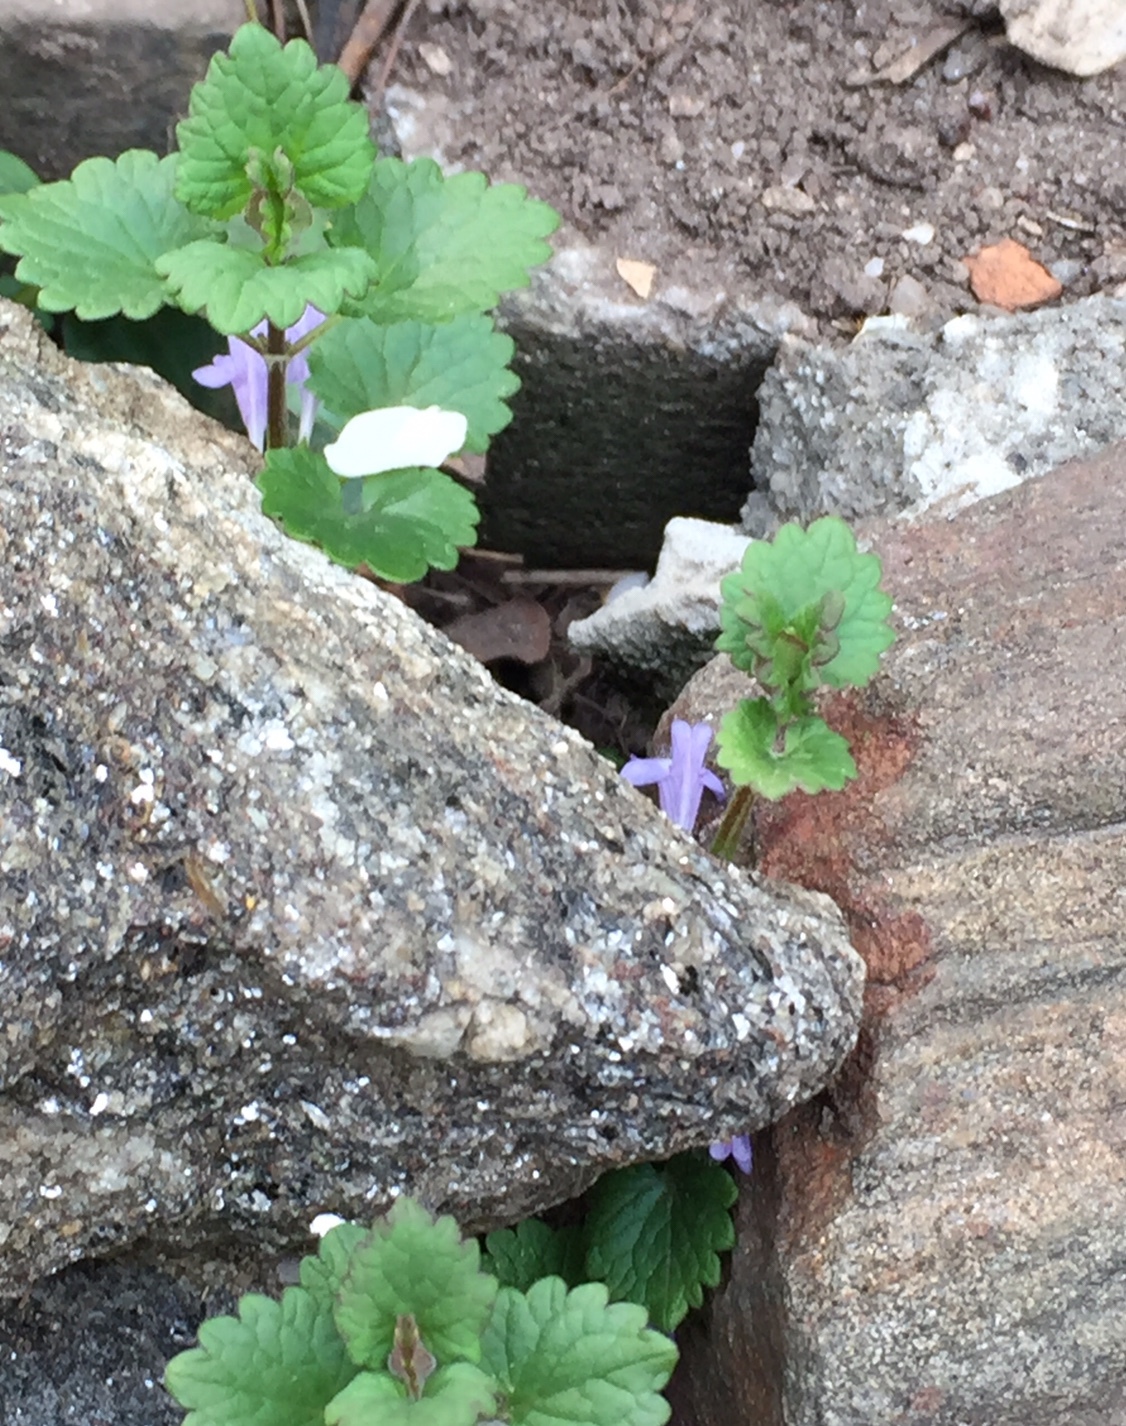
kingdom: Plantae
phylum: Tracheophyta
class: Magnoliopsida
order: Lamiales
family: Lamiaceae
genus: Glechoma
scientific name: Glechoma hederacea
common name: Ground ivy
